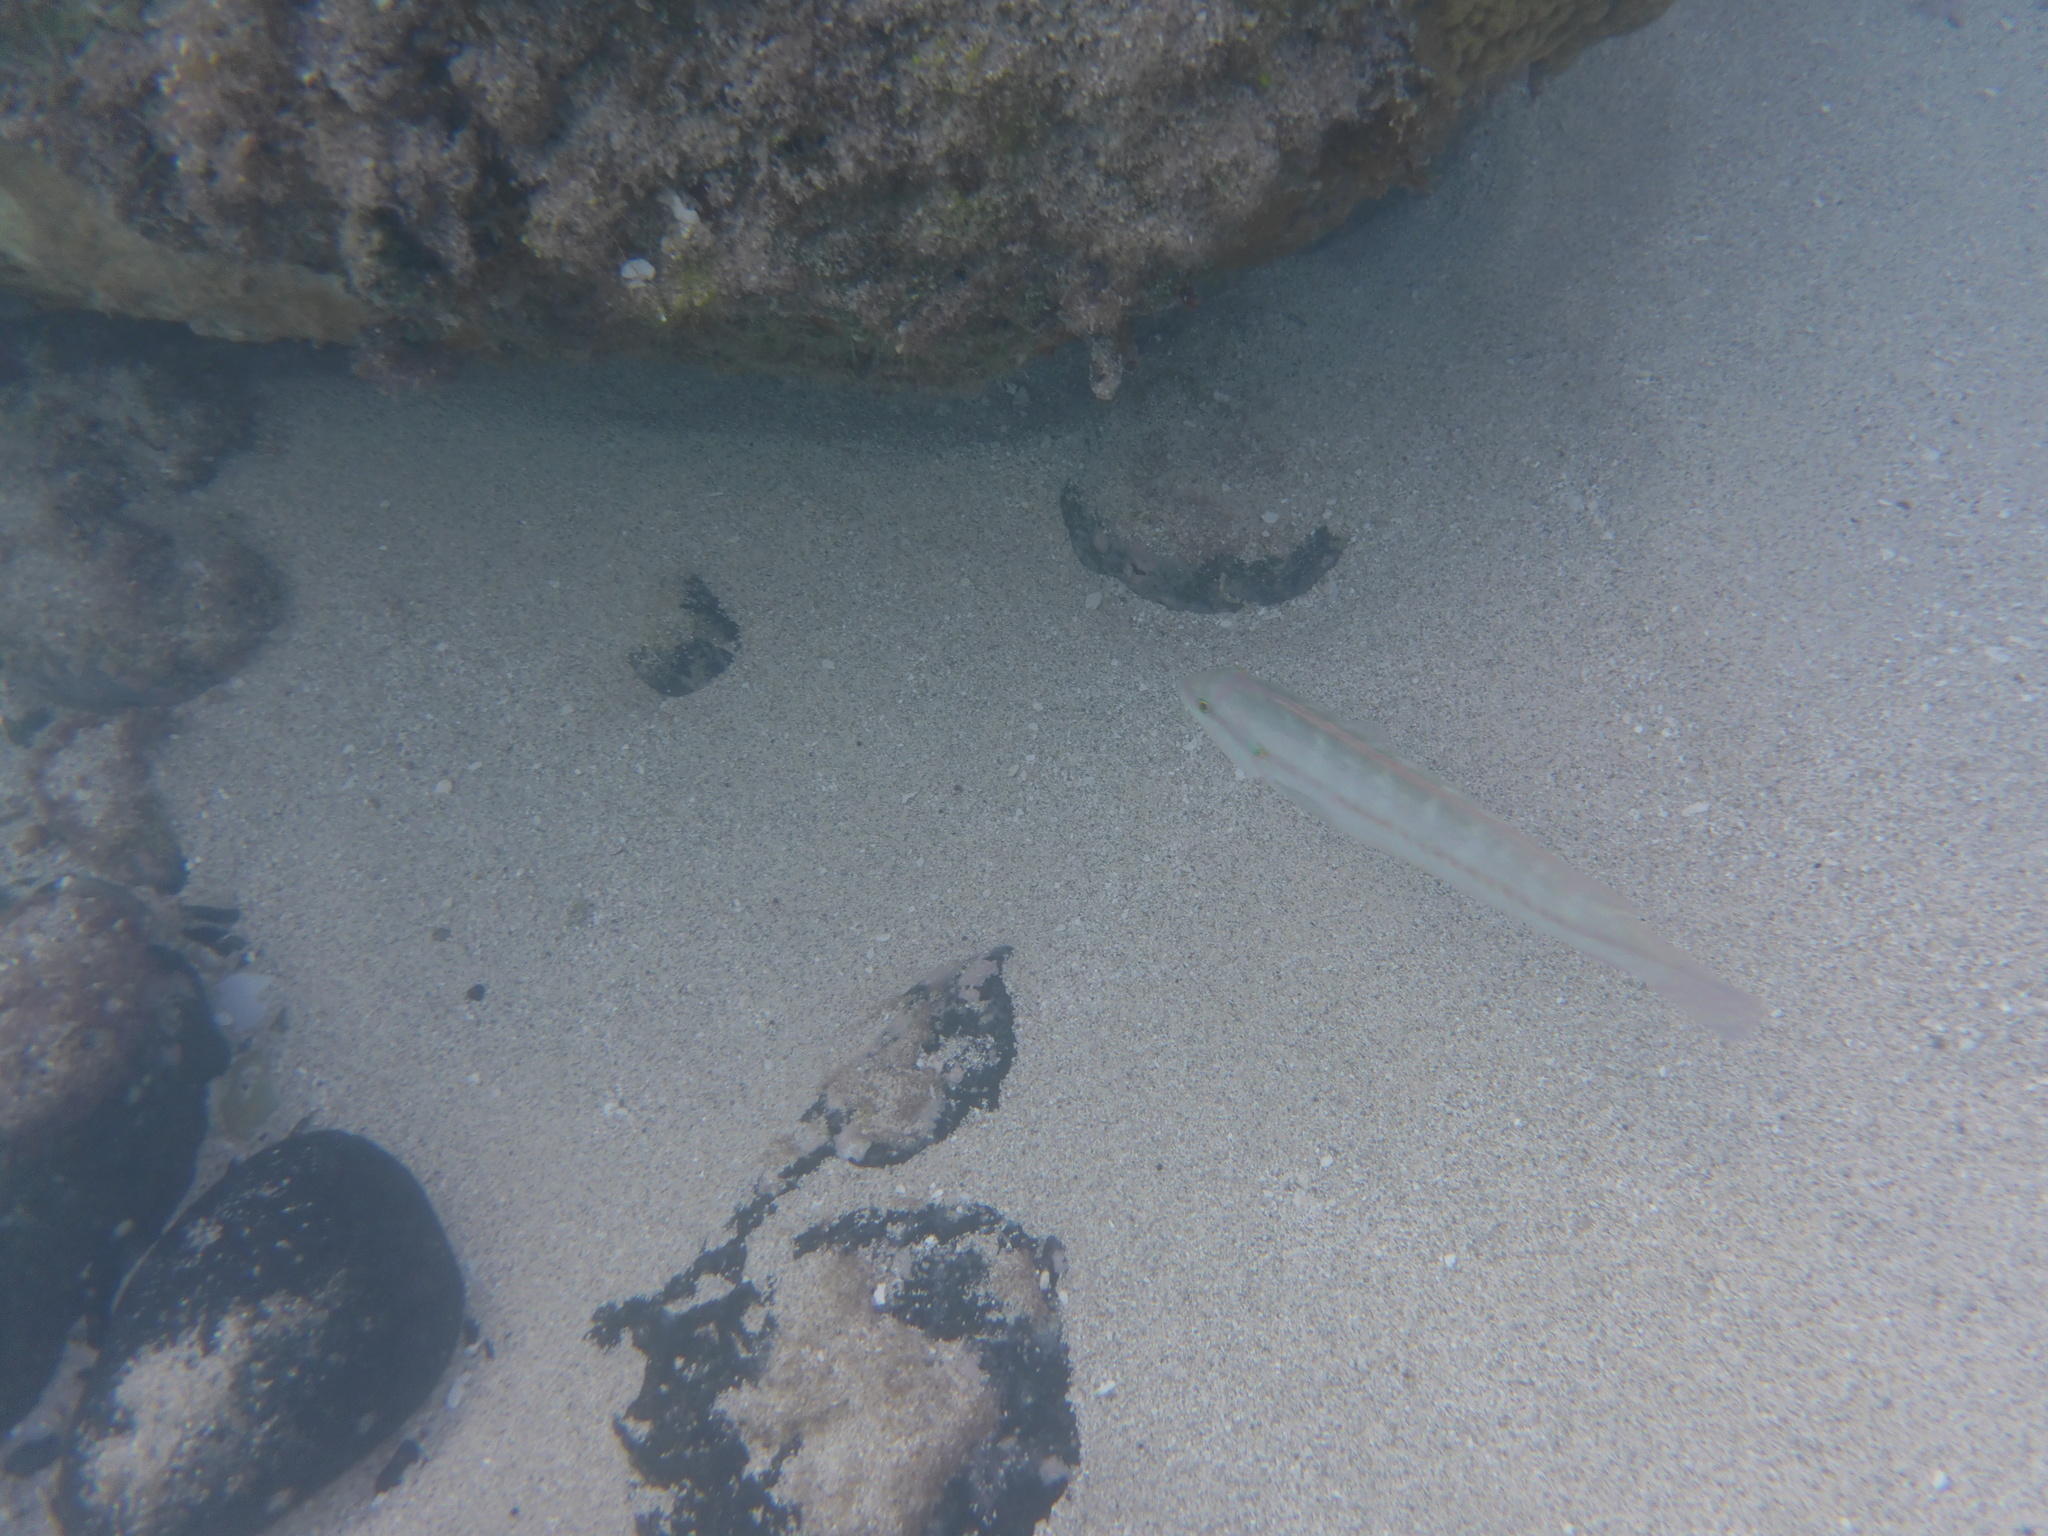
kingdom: Animalia
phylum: Chordata
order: Perciformes
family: Labridae
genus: Halichoeres
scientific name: Halichoeres bivittatus
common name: Slippery dick
